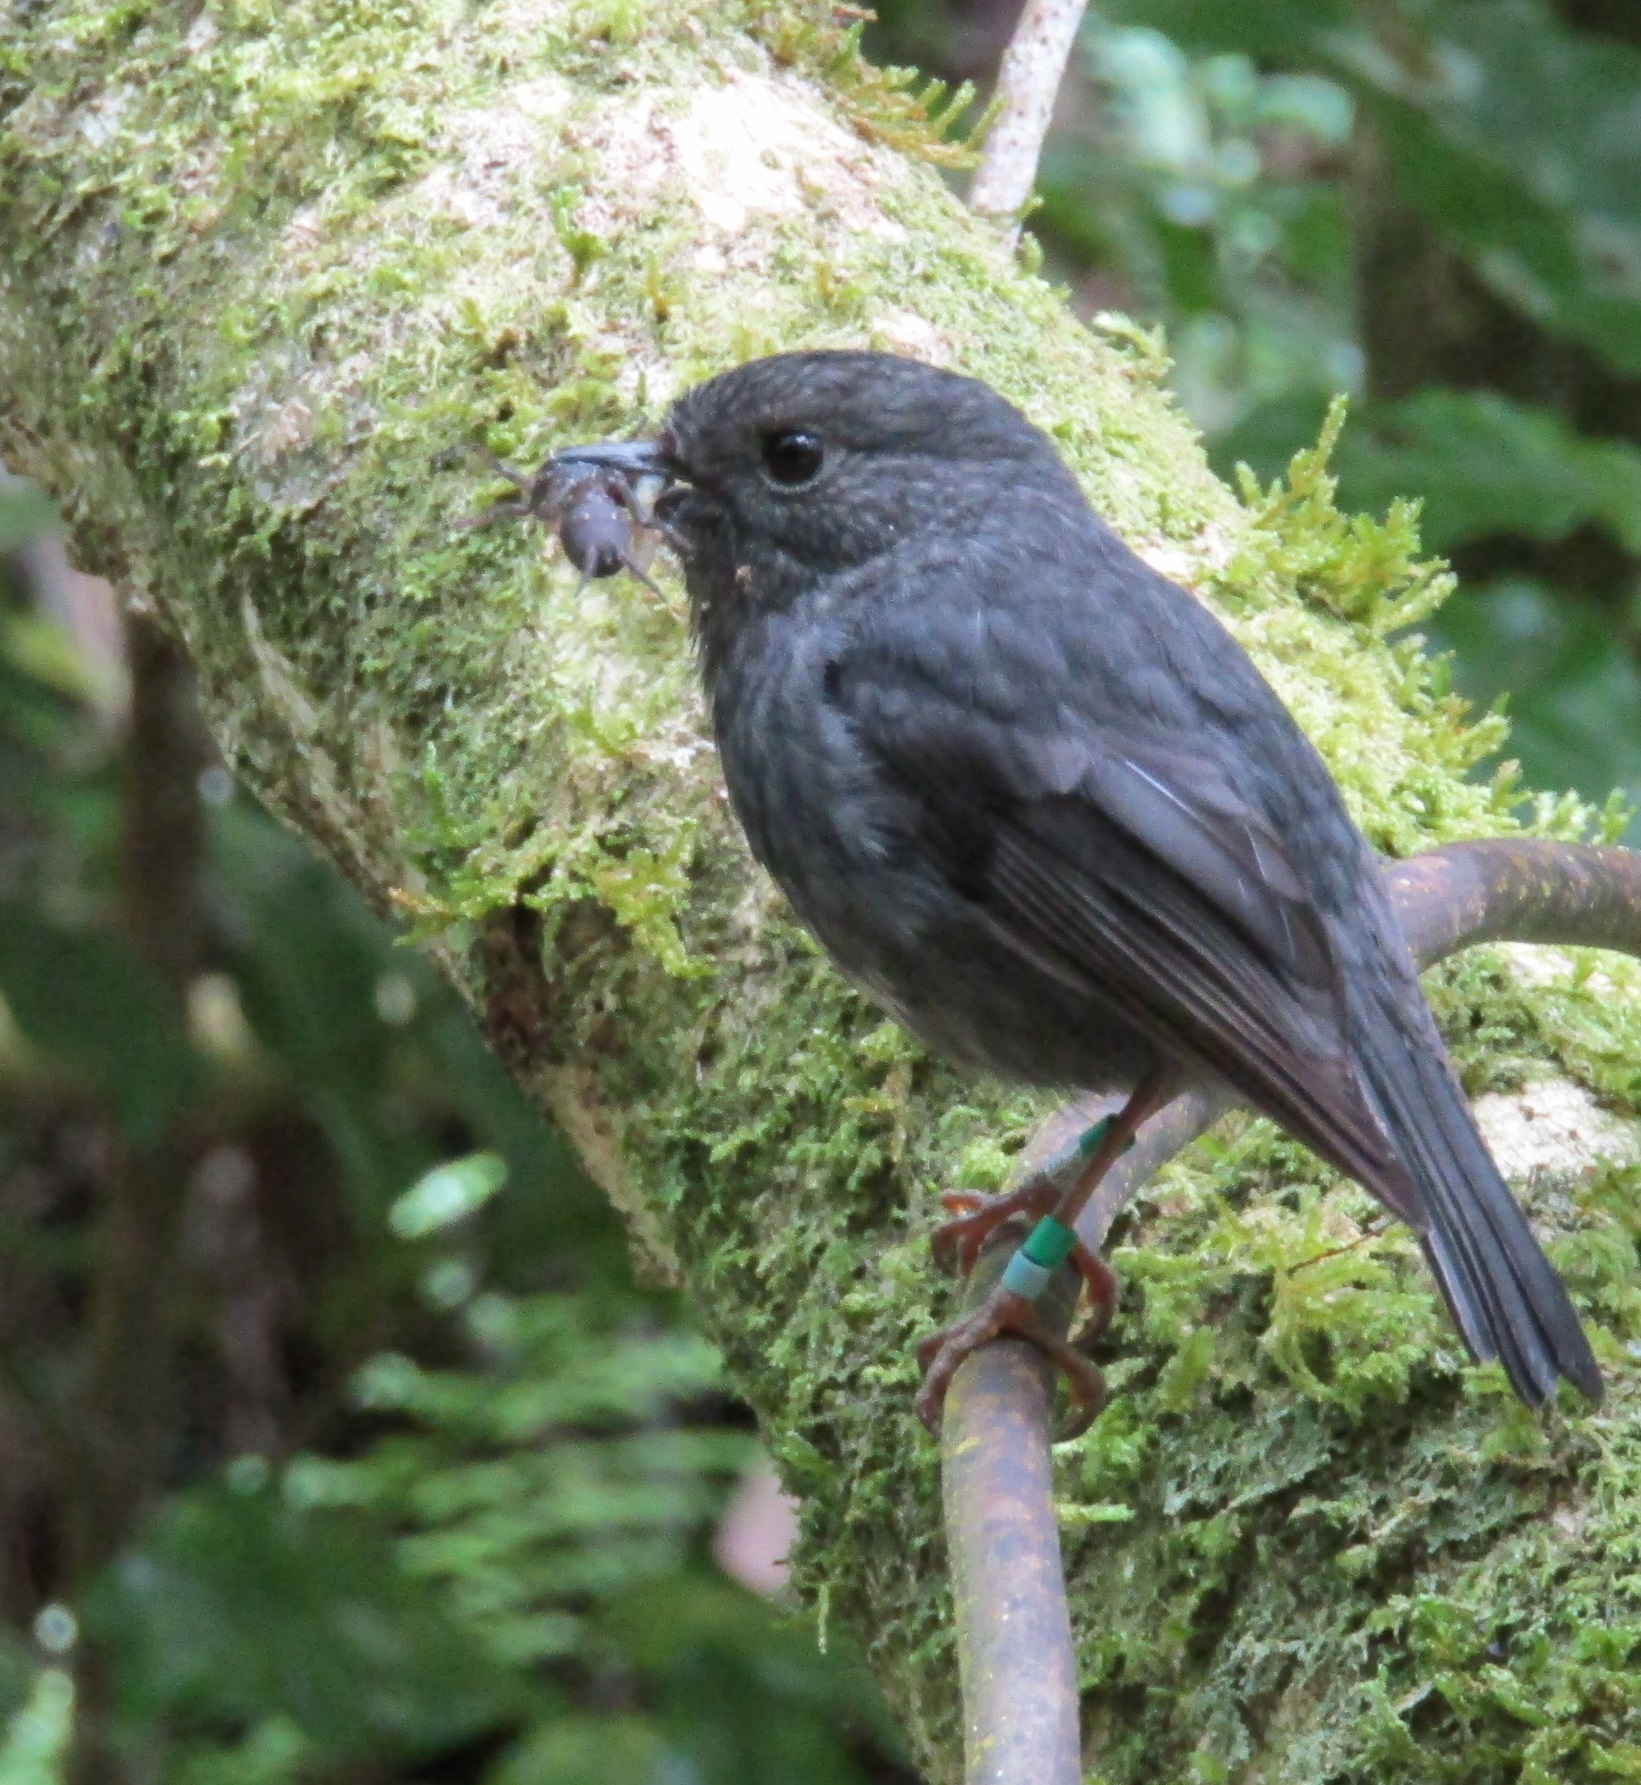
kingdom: Animalia
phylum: Chordata
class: Aves
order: Passeriformes
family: Petroicidae
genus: Petroica
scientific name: Petroica australis
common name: New zealand robin
